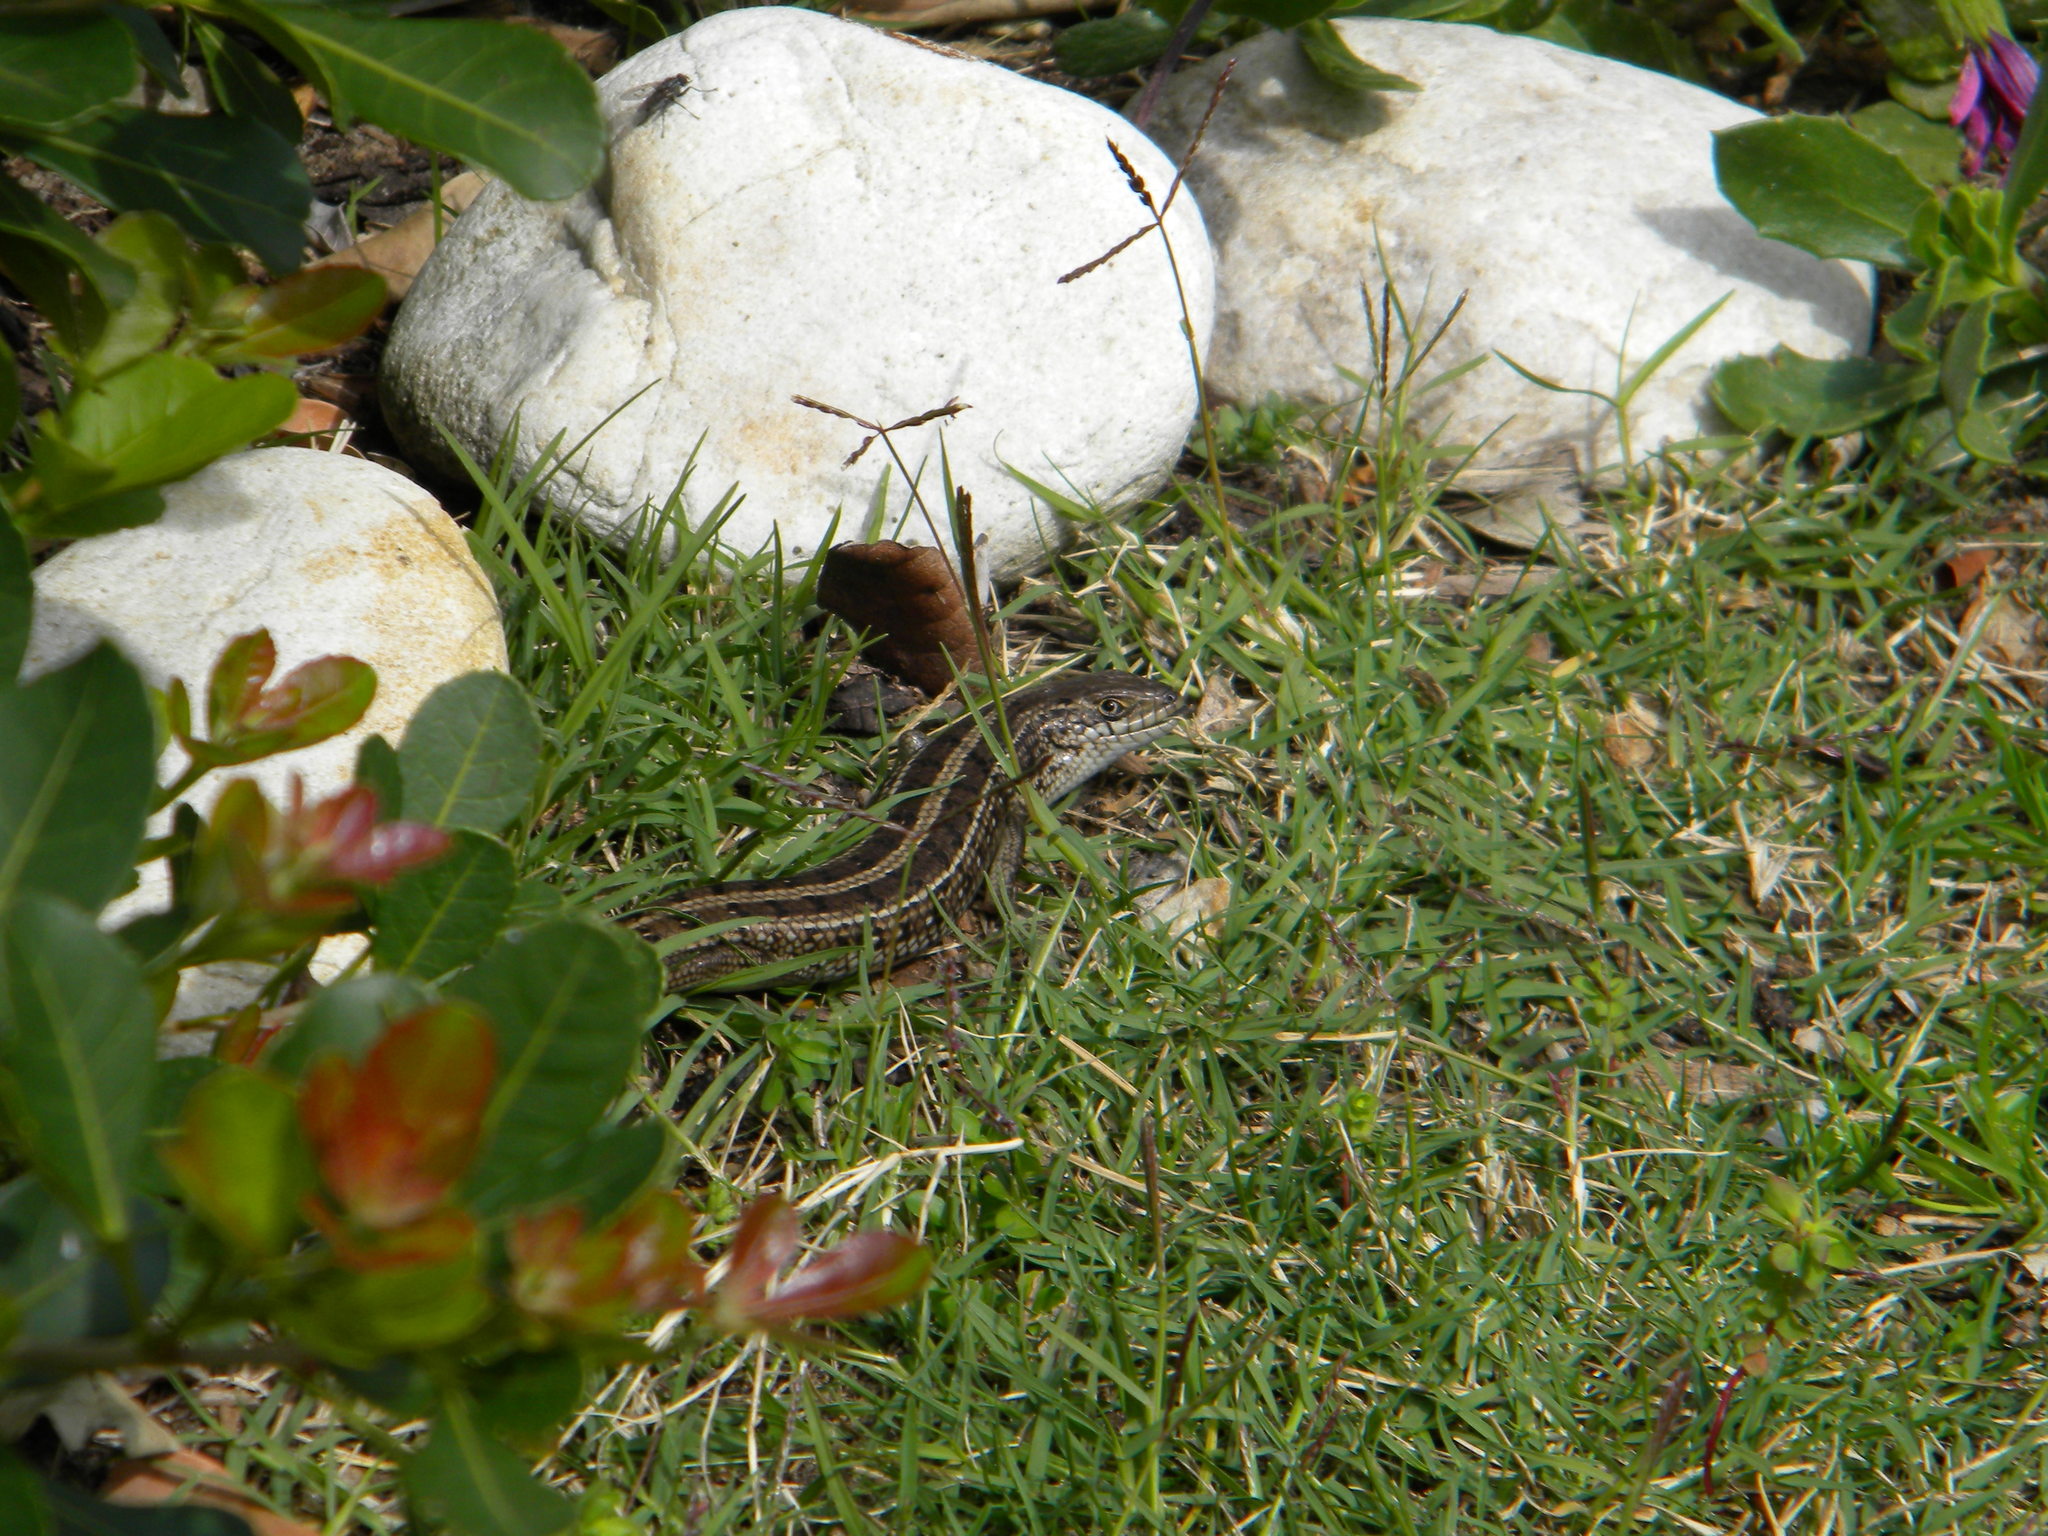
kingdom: Animalia
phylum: Chordata
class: Squamata
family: Scincidae
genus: Trachylepis
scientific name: Trachylepis capensis
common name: Cape skink
